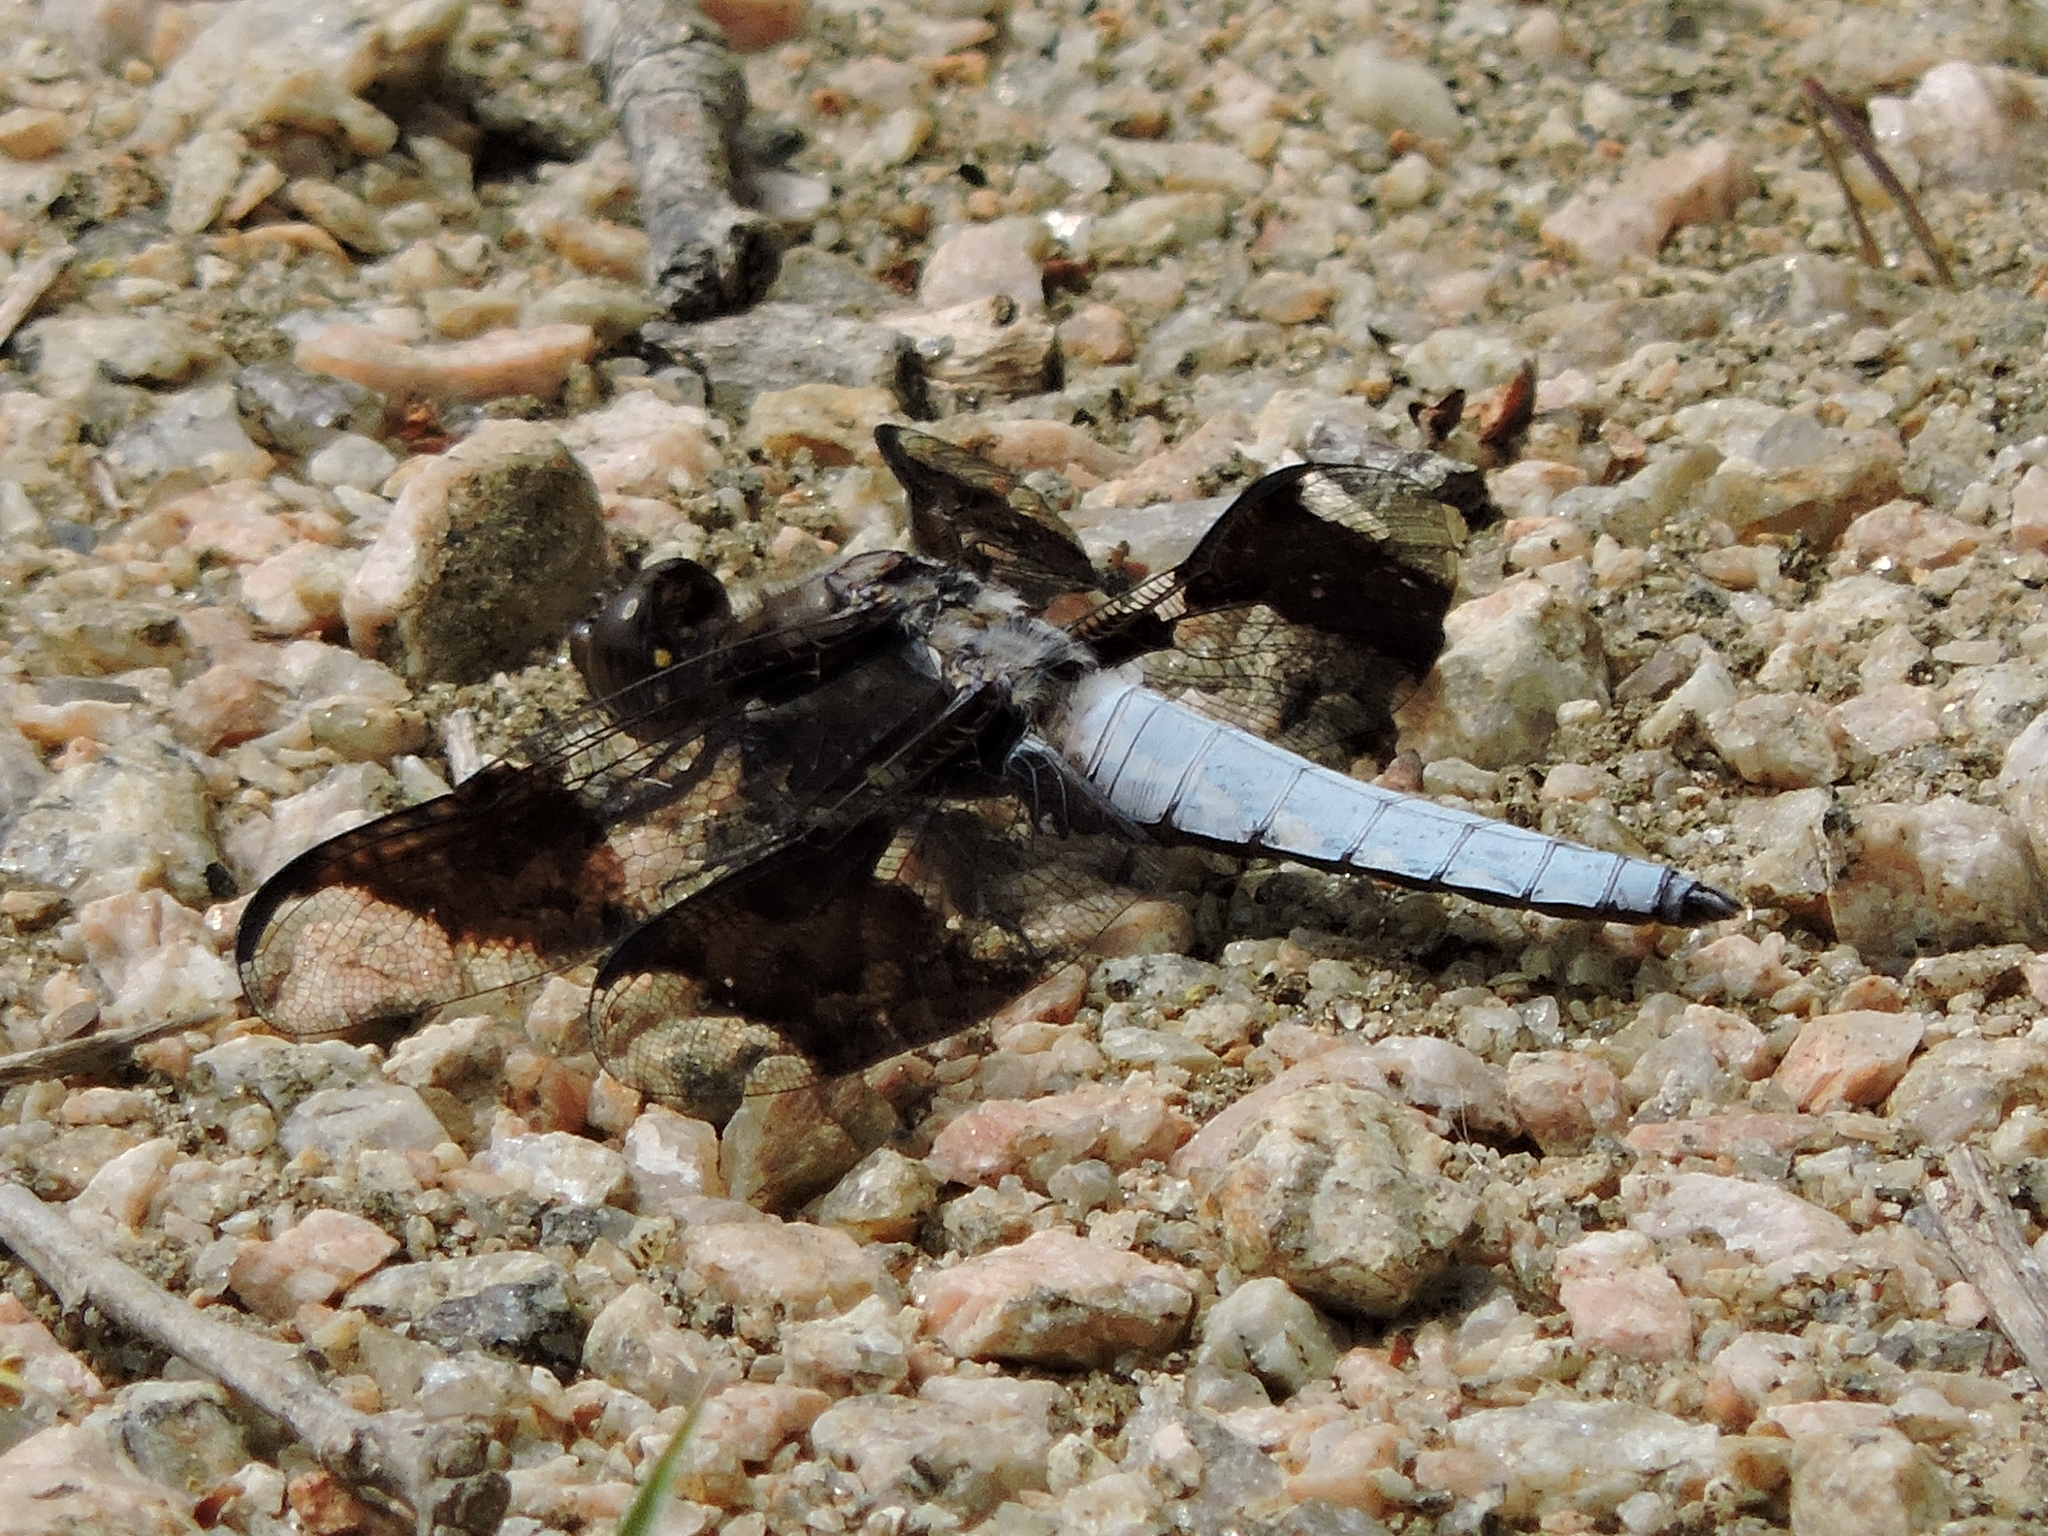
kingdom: Animalia
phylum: Arthropoda
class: Insecta
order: Odonata
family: Libellulidae
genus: Plathemis
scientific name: Plathemis lydia
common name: Common whitetail
